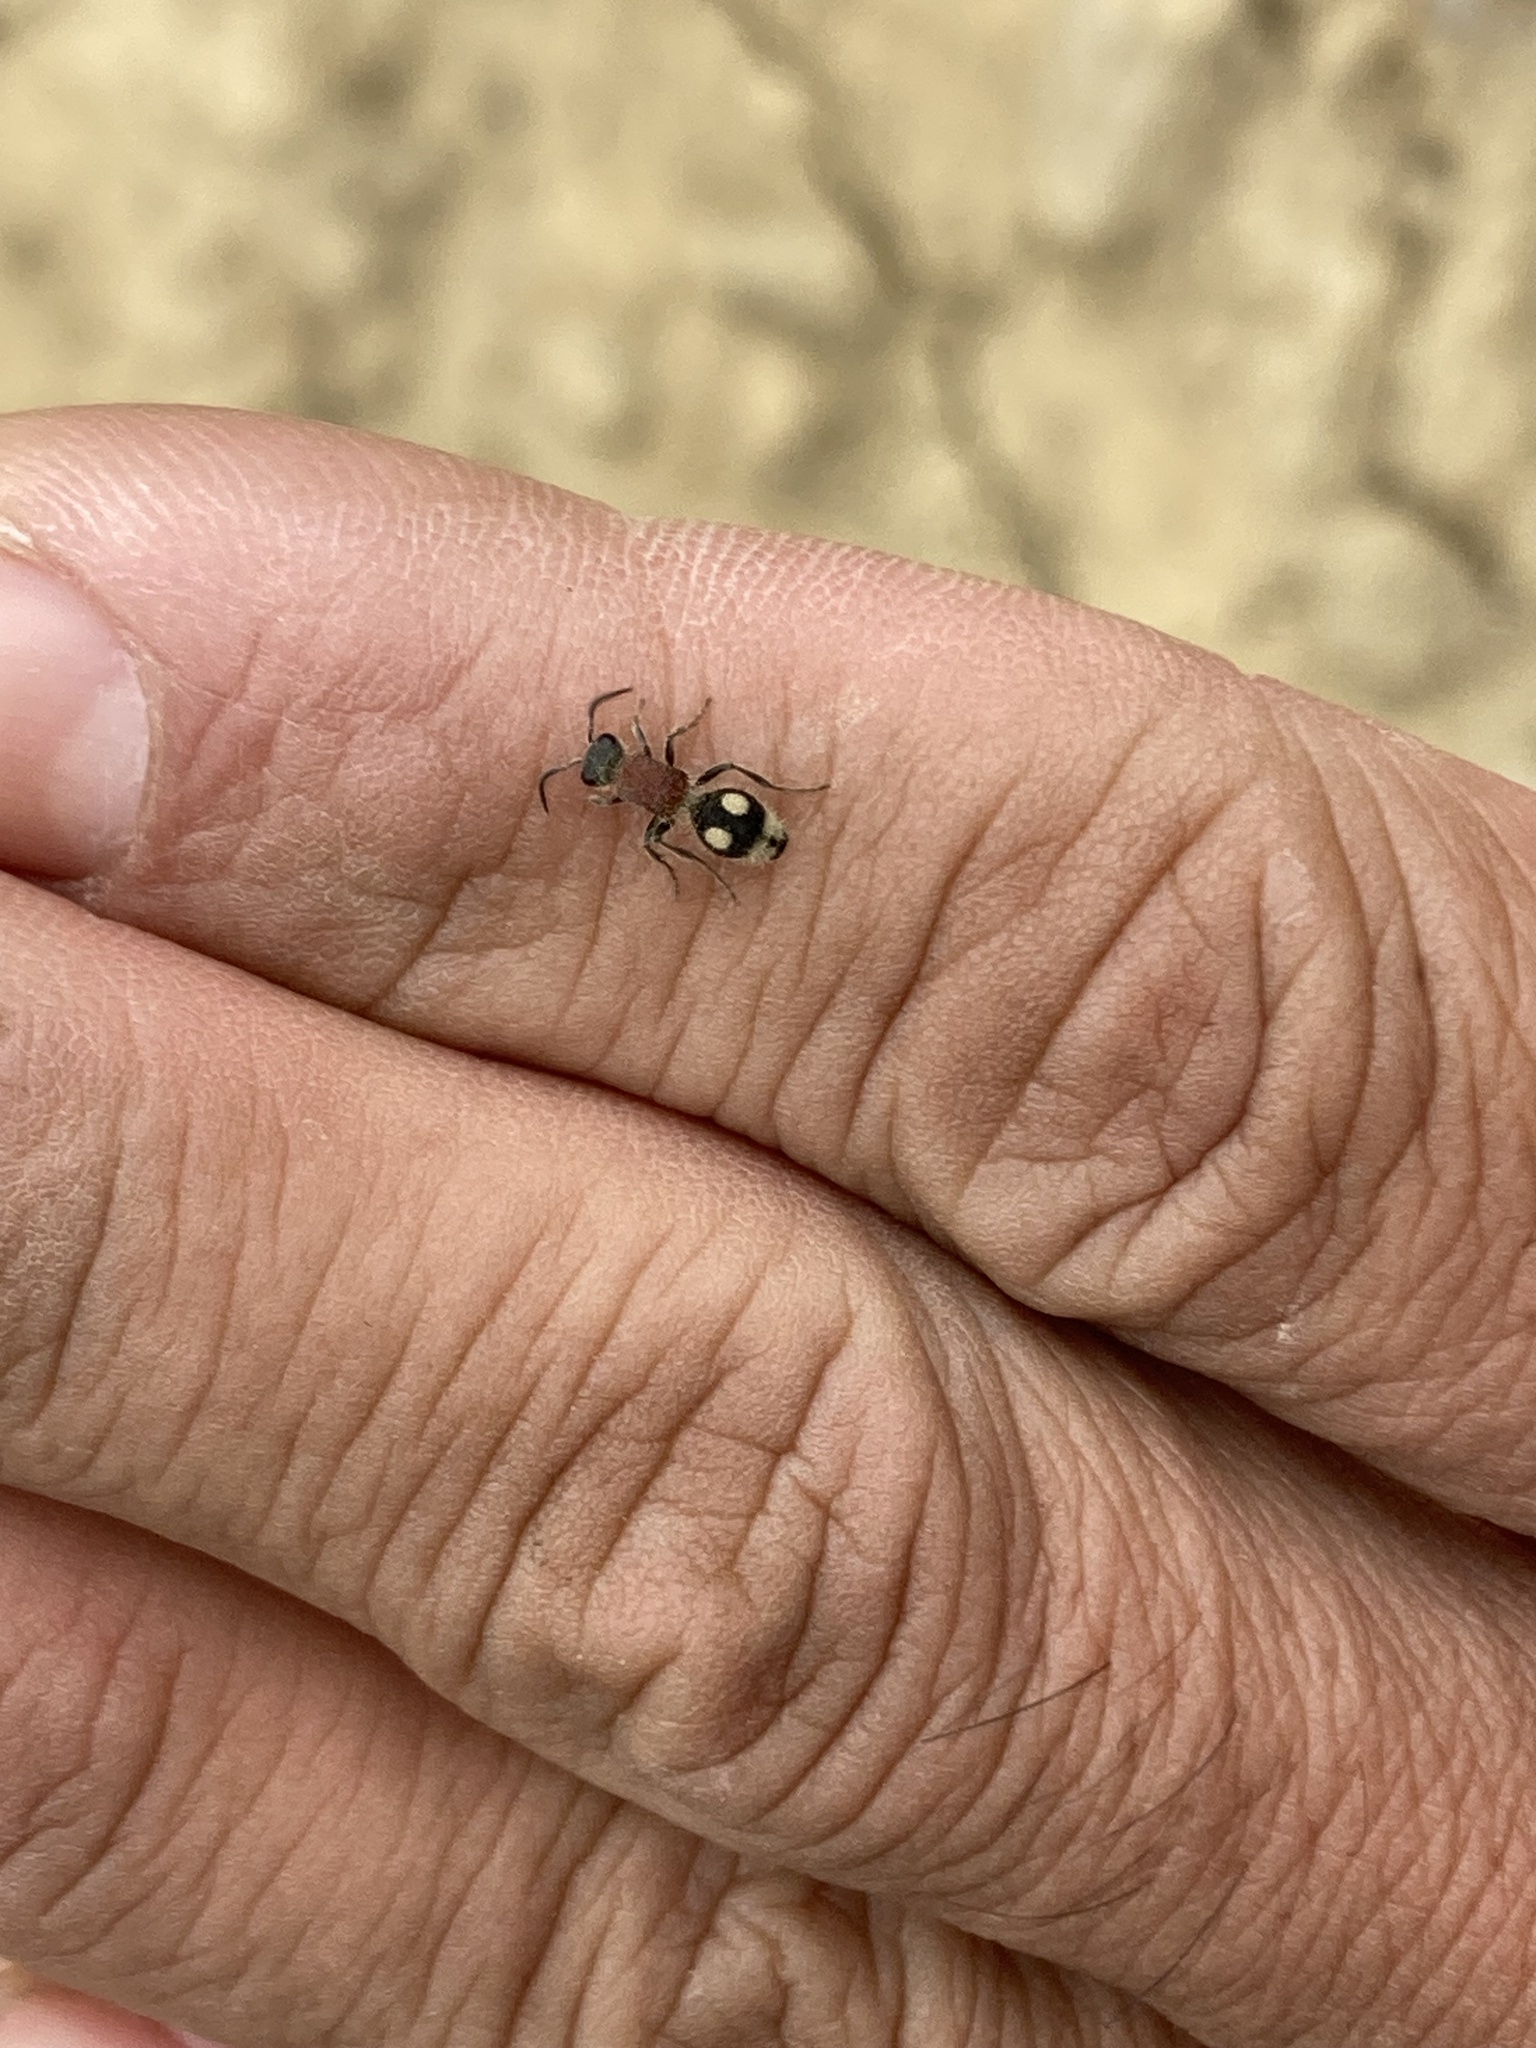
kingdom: Animalia
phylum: Arthropoda
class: Insecta
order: Hymenoptera
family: Mutillidae
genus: Mutilla
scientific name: Mutilla auroguttata
